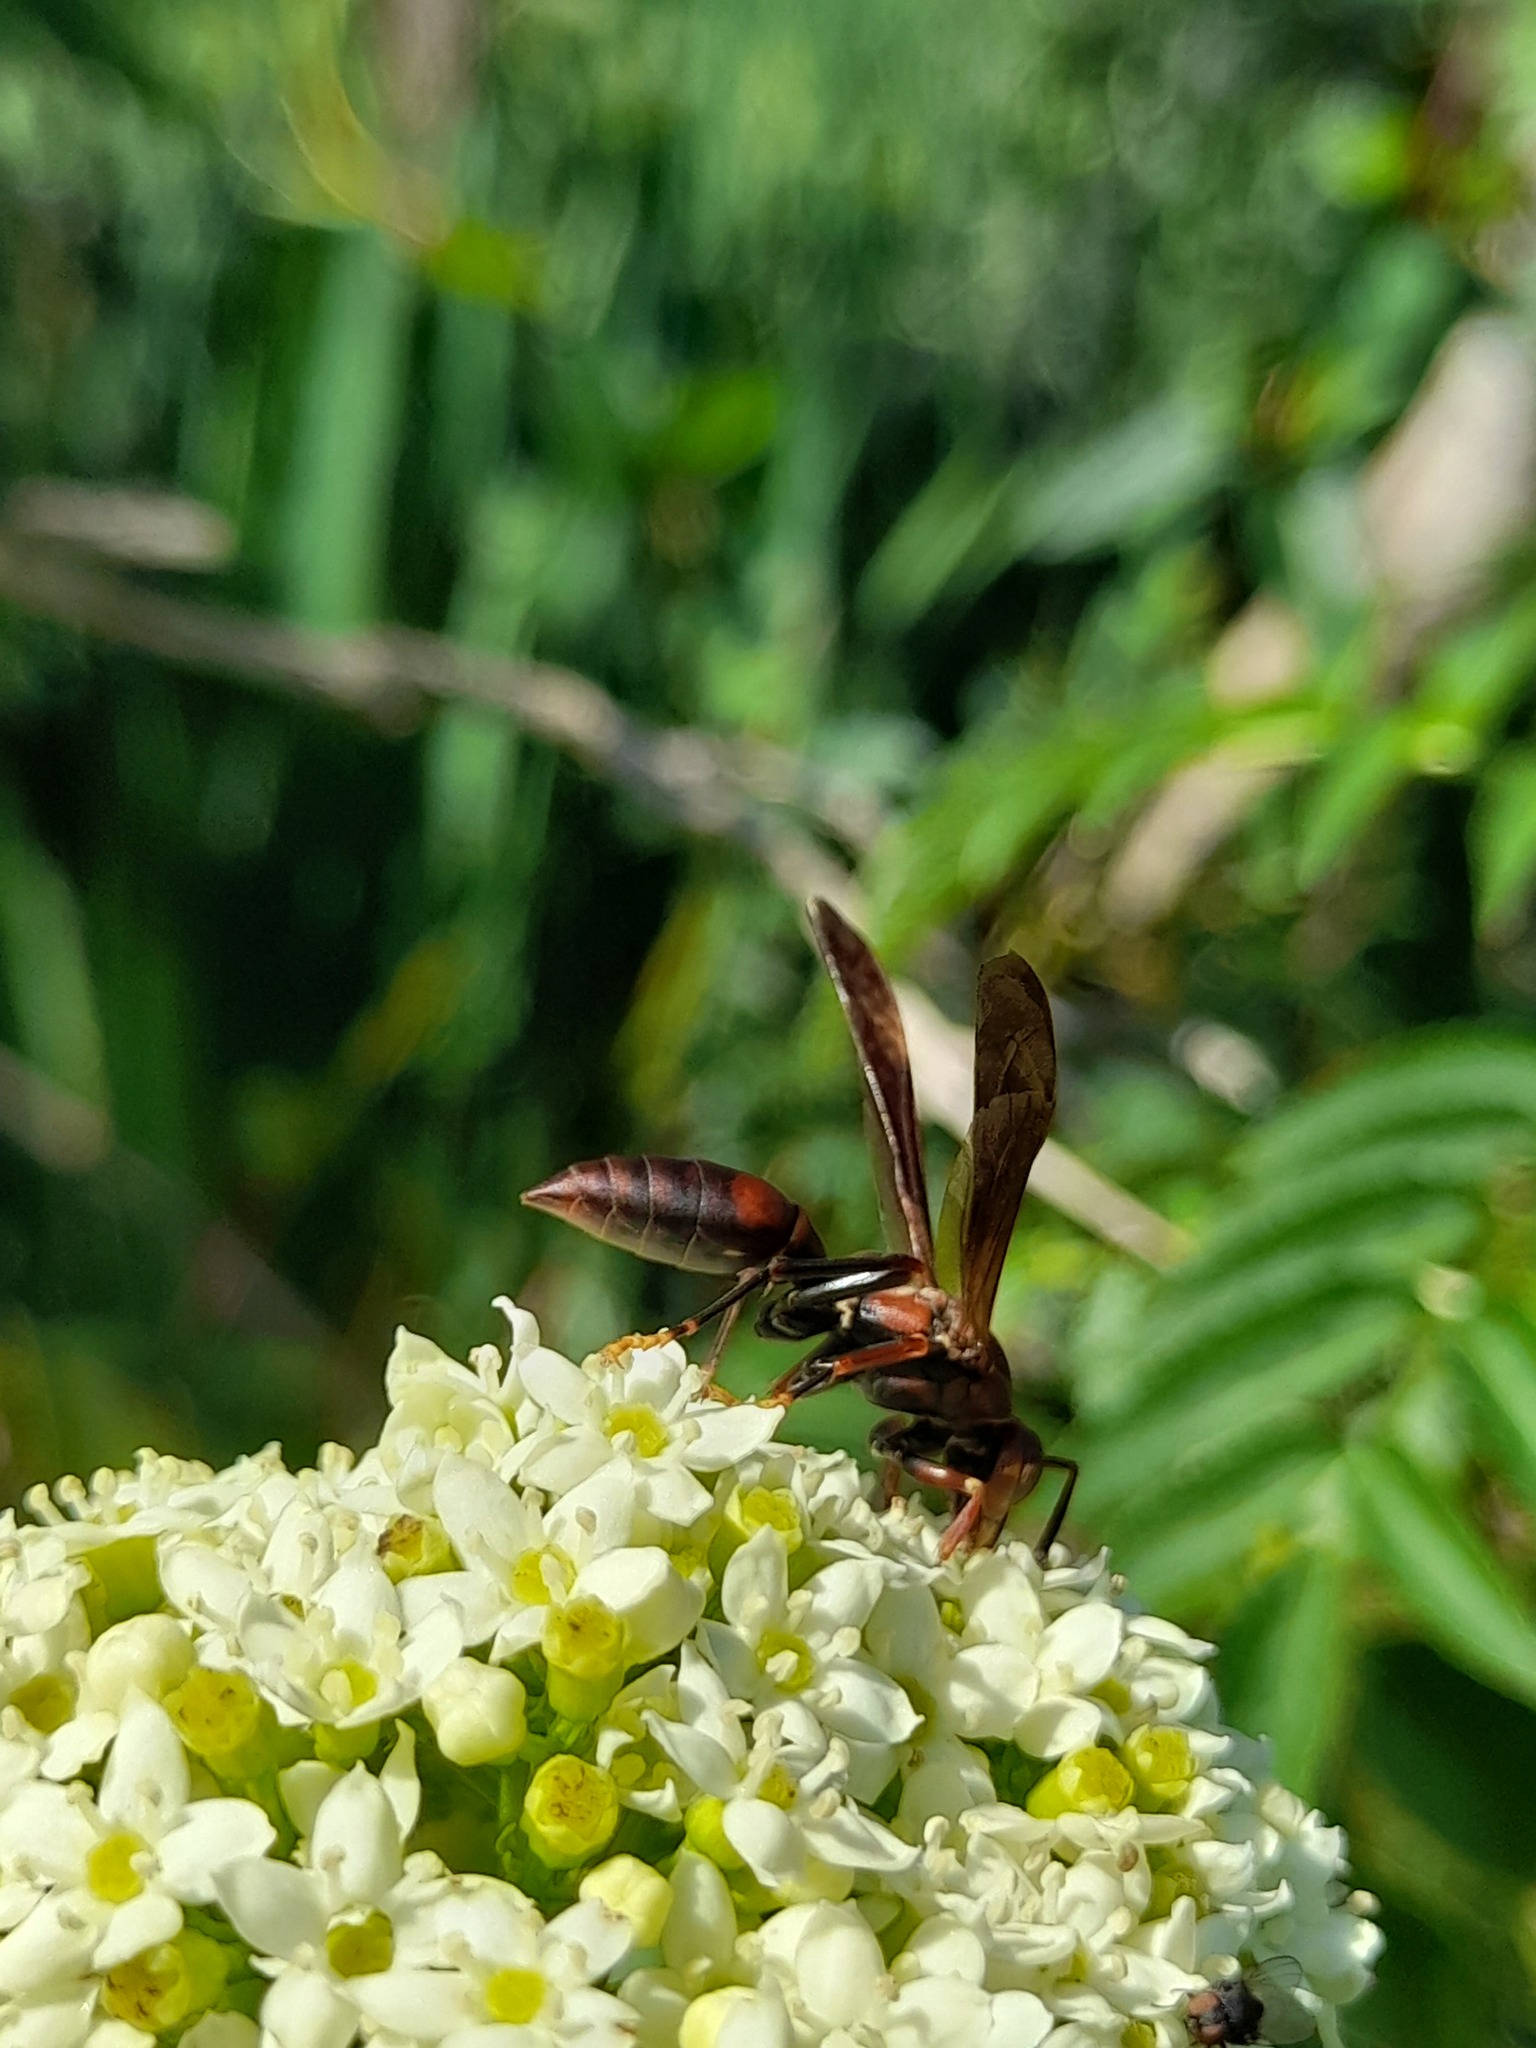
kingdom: Animalia
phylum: Arthropoda
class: Insecta
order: Hymenoptera
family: Pompilidae
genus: Aphanilopterus
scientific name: Aphanilopterus
